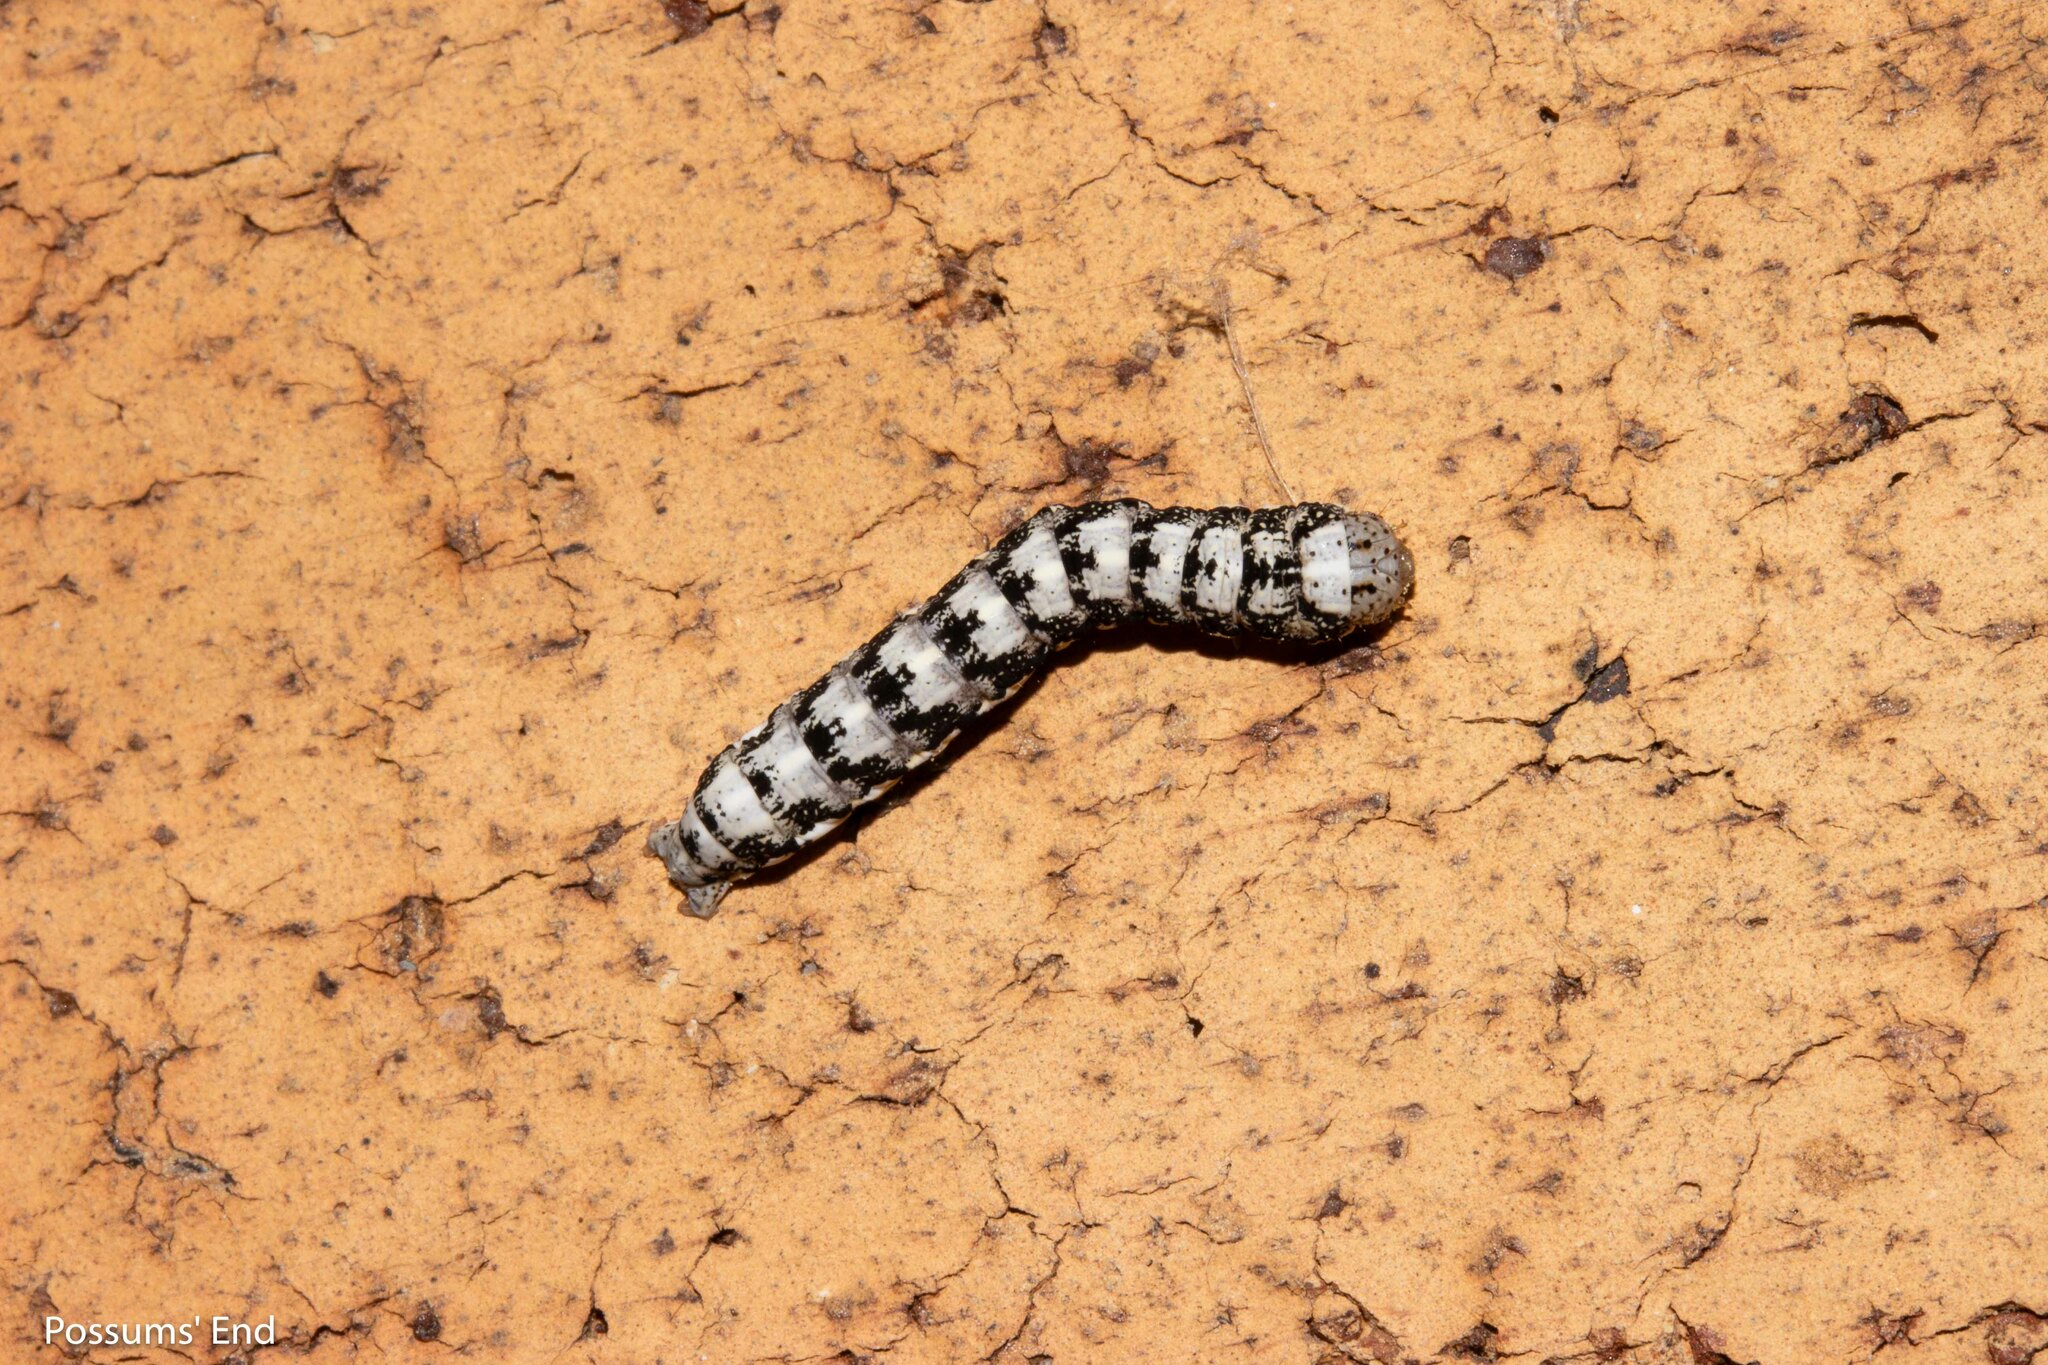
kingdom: Animalia
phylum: Arthropoda
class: Insecta
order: Lepidoptera
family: Noctuidae
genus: Meterana
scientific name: Meterana decorata
